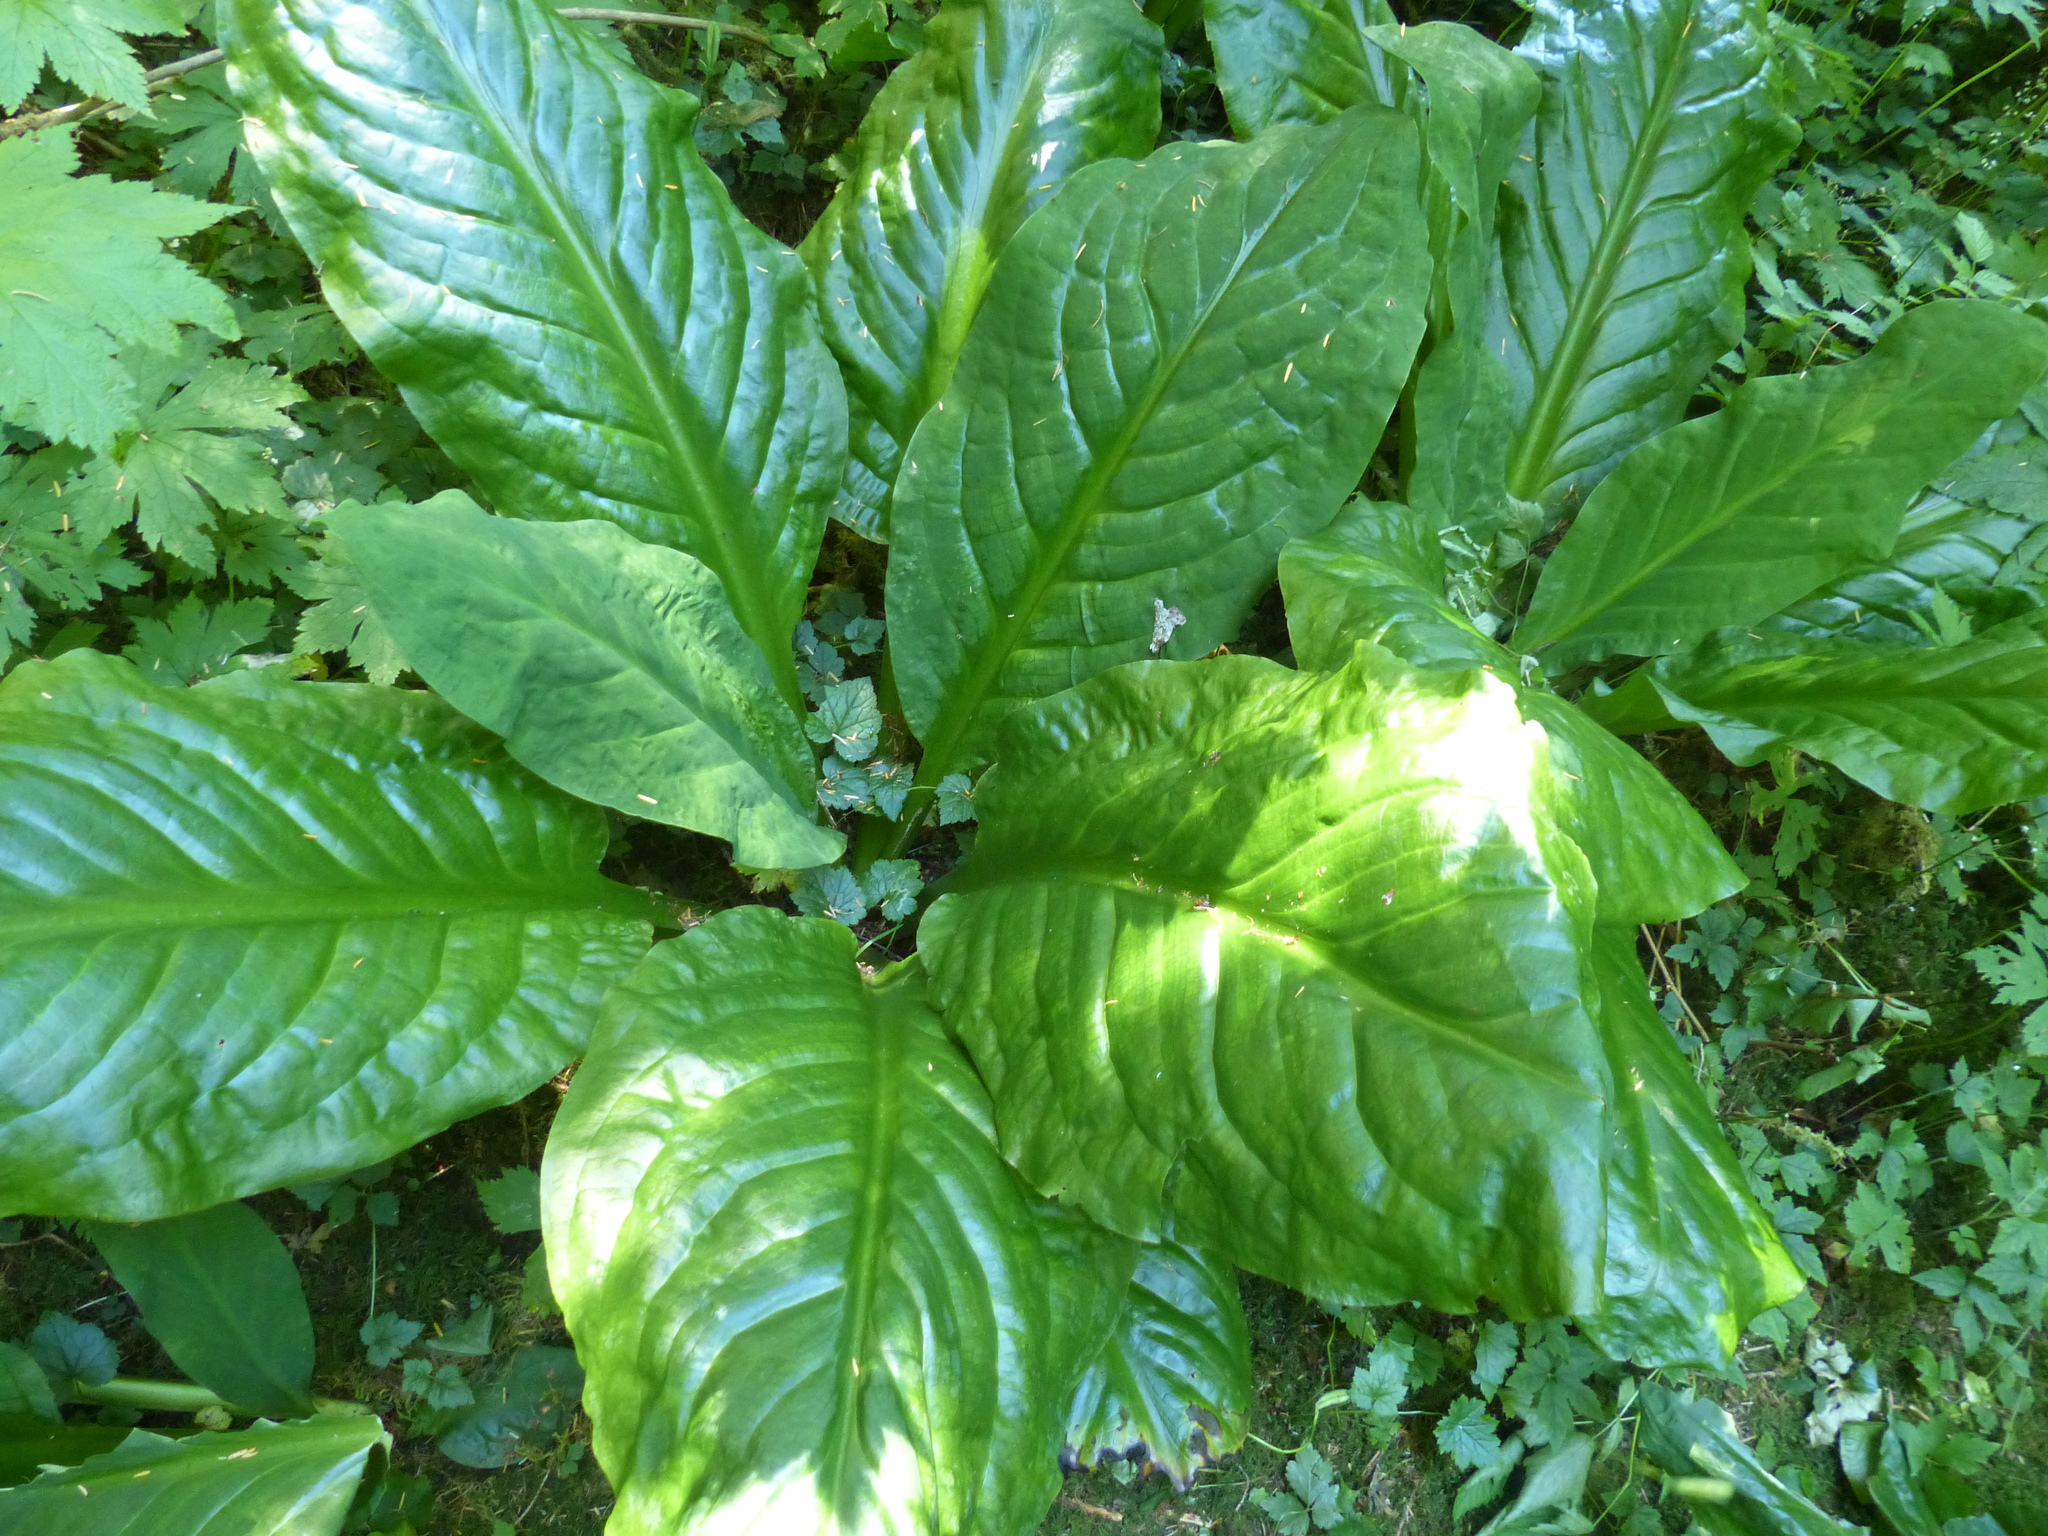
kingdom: Plantae
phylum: Tracheophyta
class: Liliopsida
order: Alismatales
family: Araceae
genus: Lysichiton
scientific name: Lysichiton americanus
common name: American skunk cabbage
